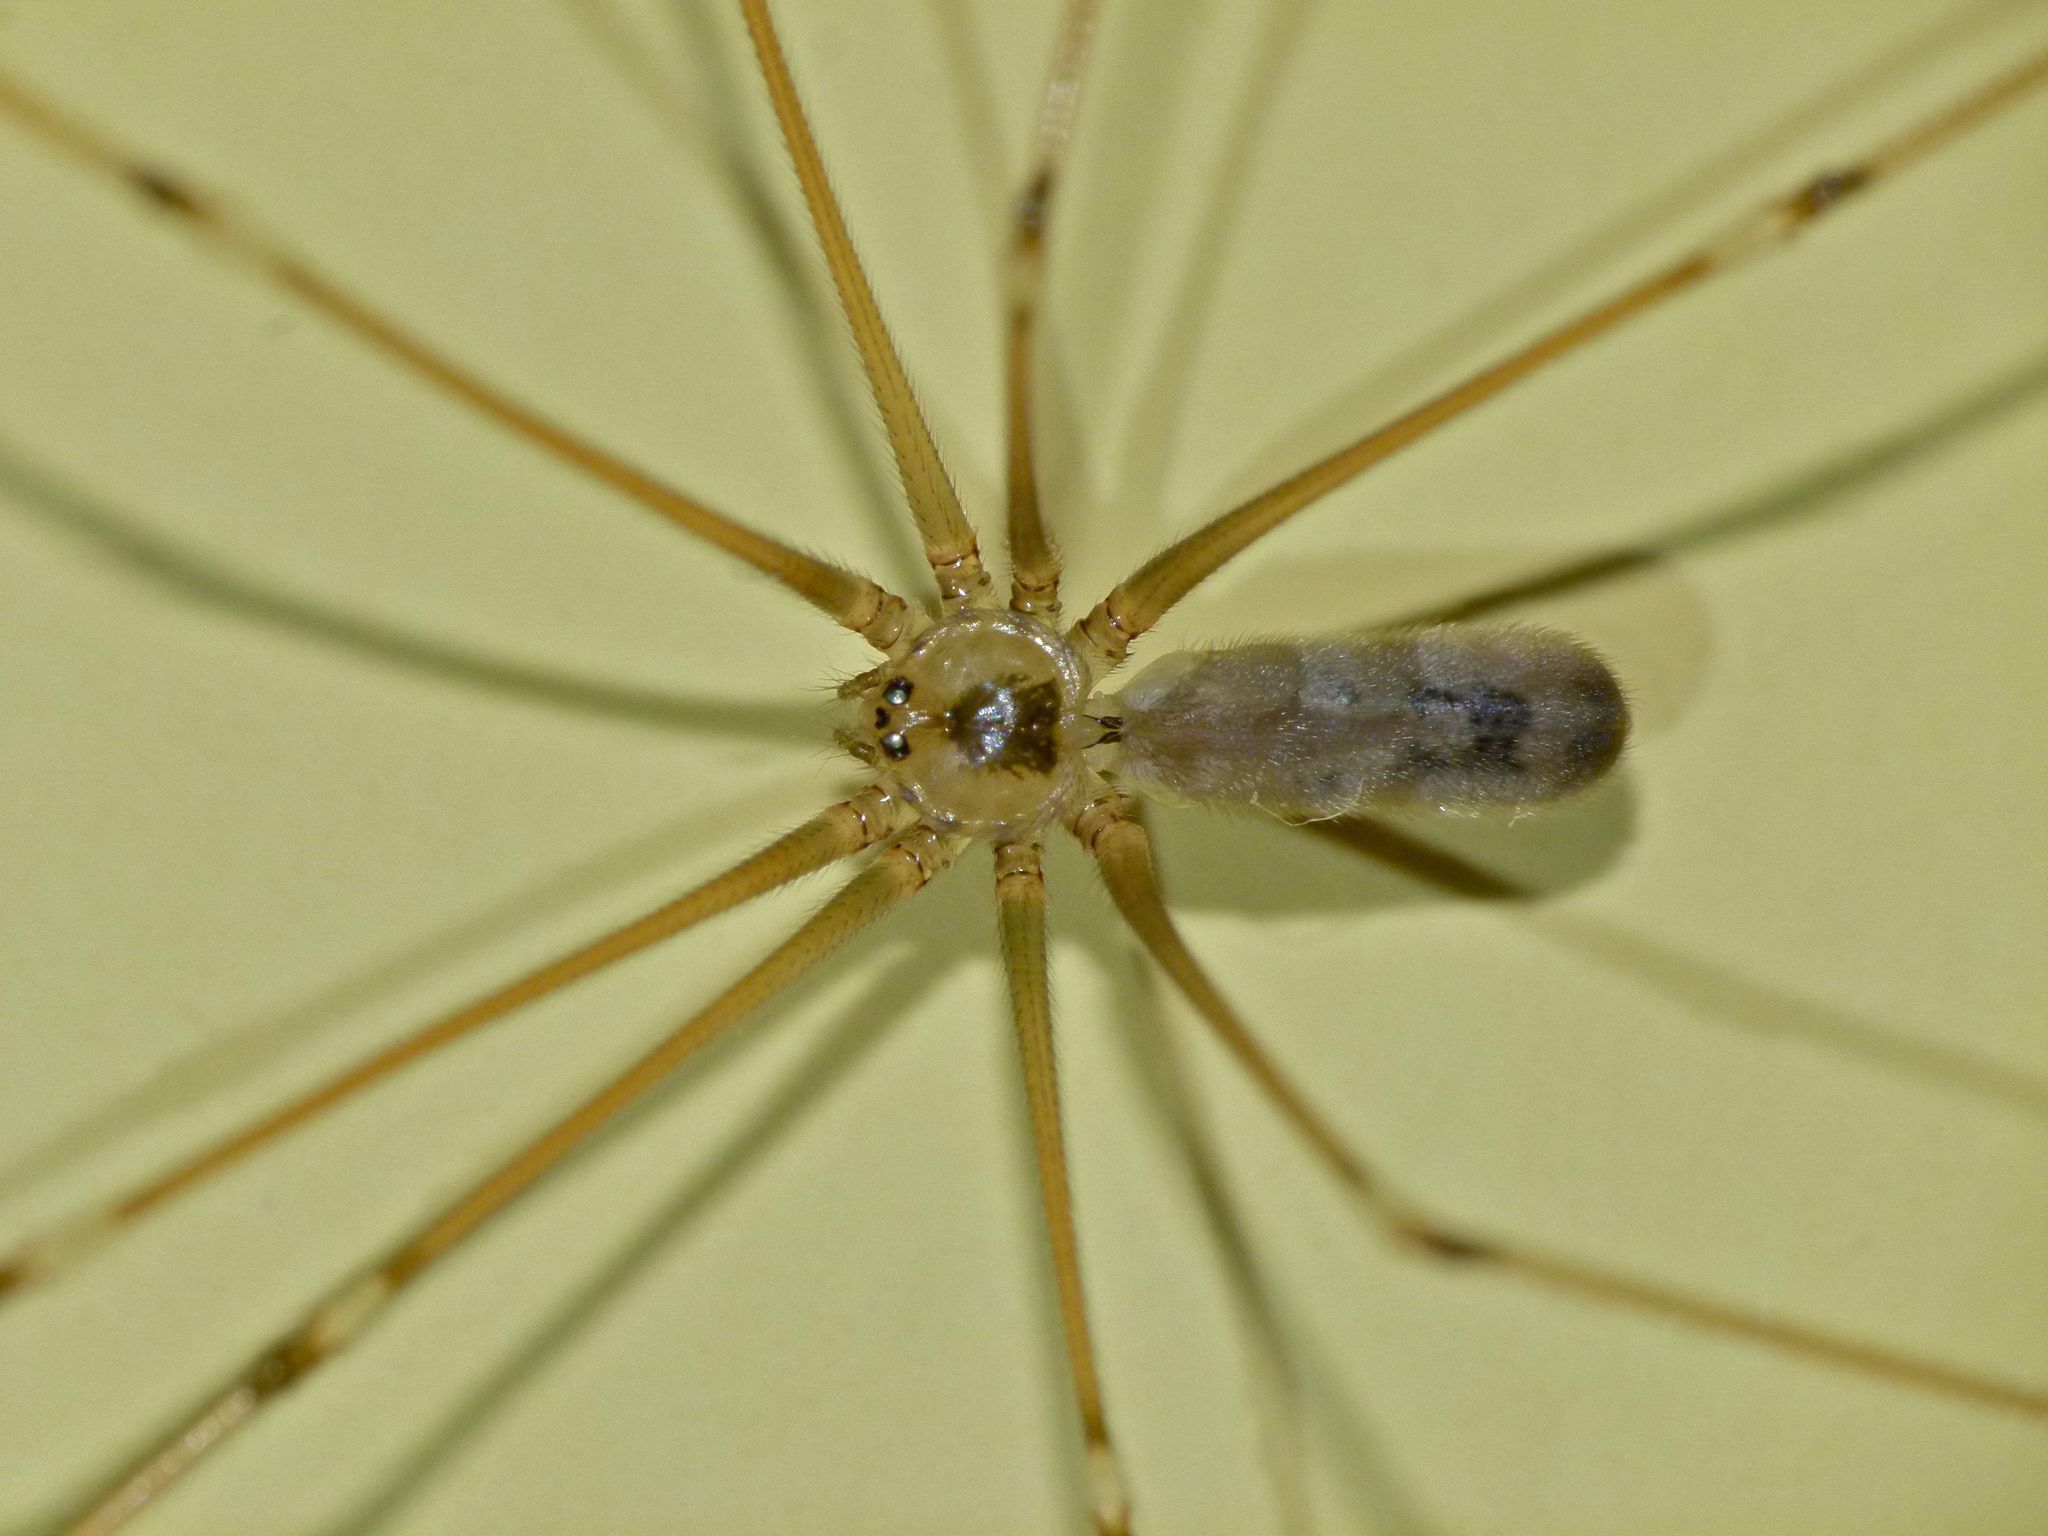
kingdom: Animalia
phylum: Arthropoda
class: Arachnida
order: Araneae
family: Pholcidae
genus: Pholcus
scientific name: Pholcus phalangioides
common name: Longbodied cellar spider
